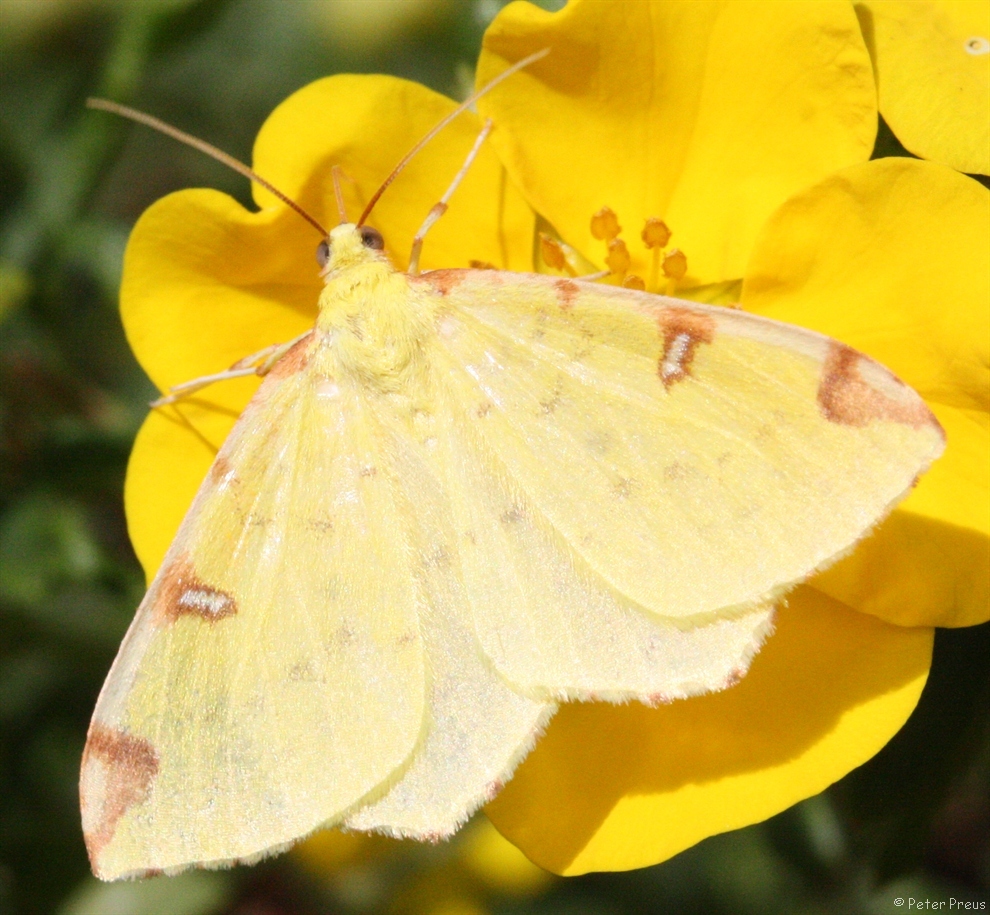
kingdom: Animalia
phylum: Arthropoda
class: Insecta
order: Lepidoptera
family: Geometridae
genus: Opisthograptis
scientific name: Opisthograptis luteolata
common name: Brimstone moth
